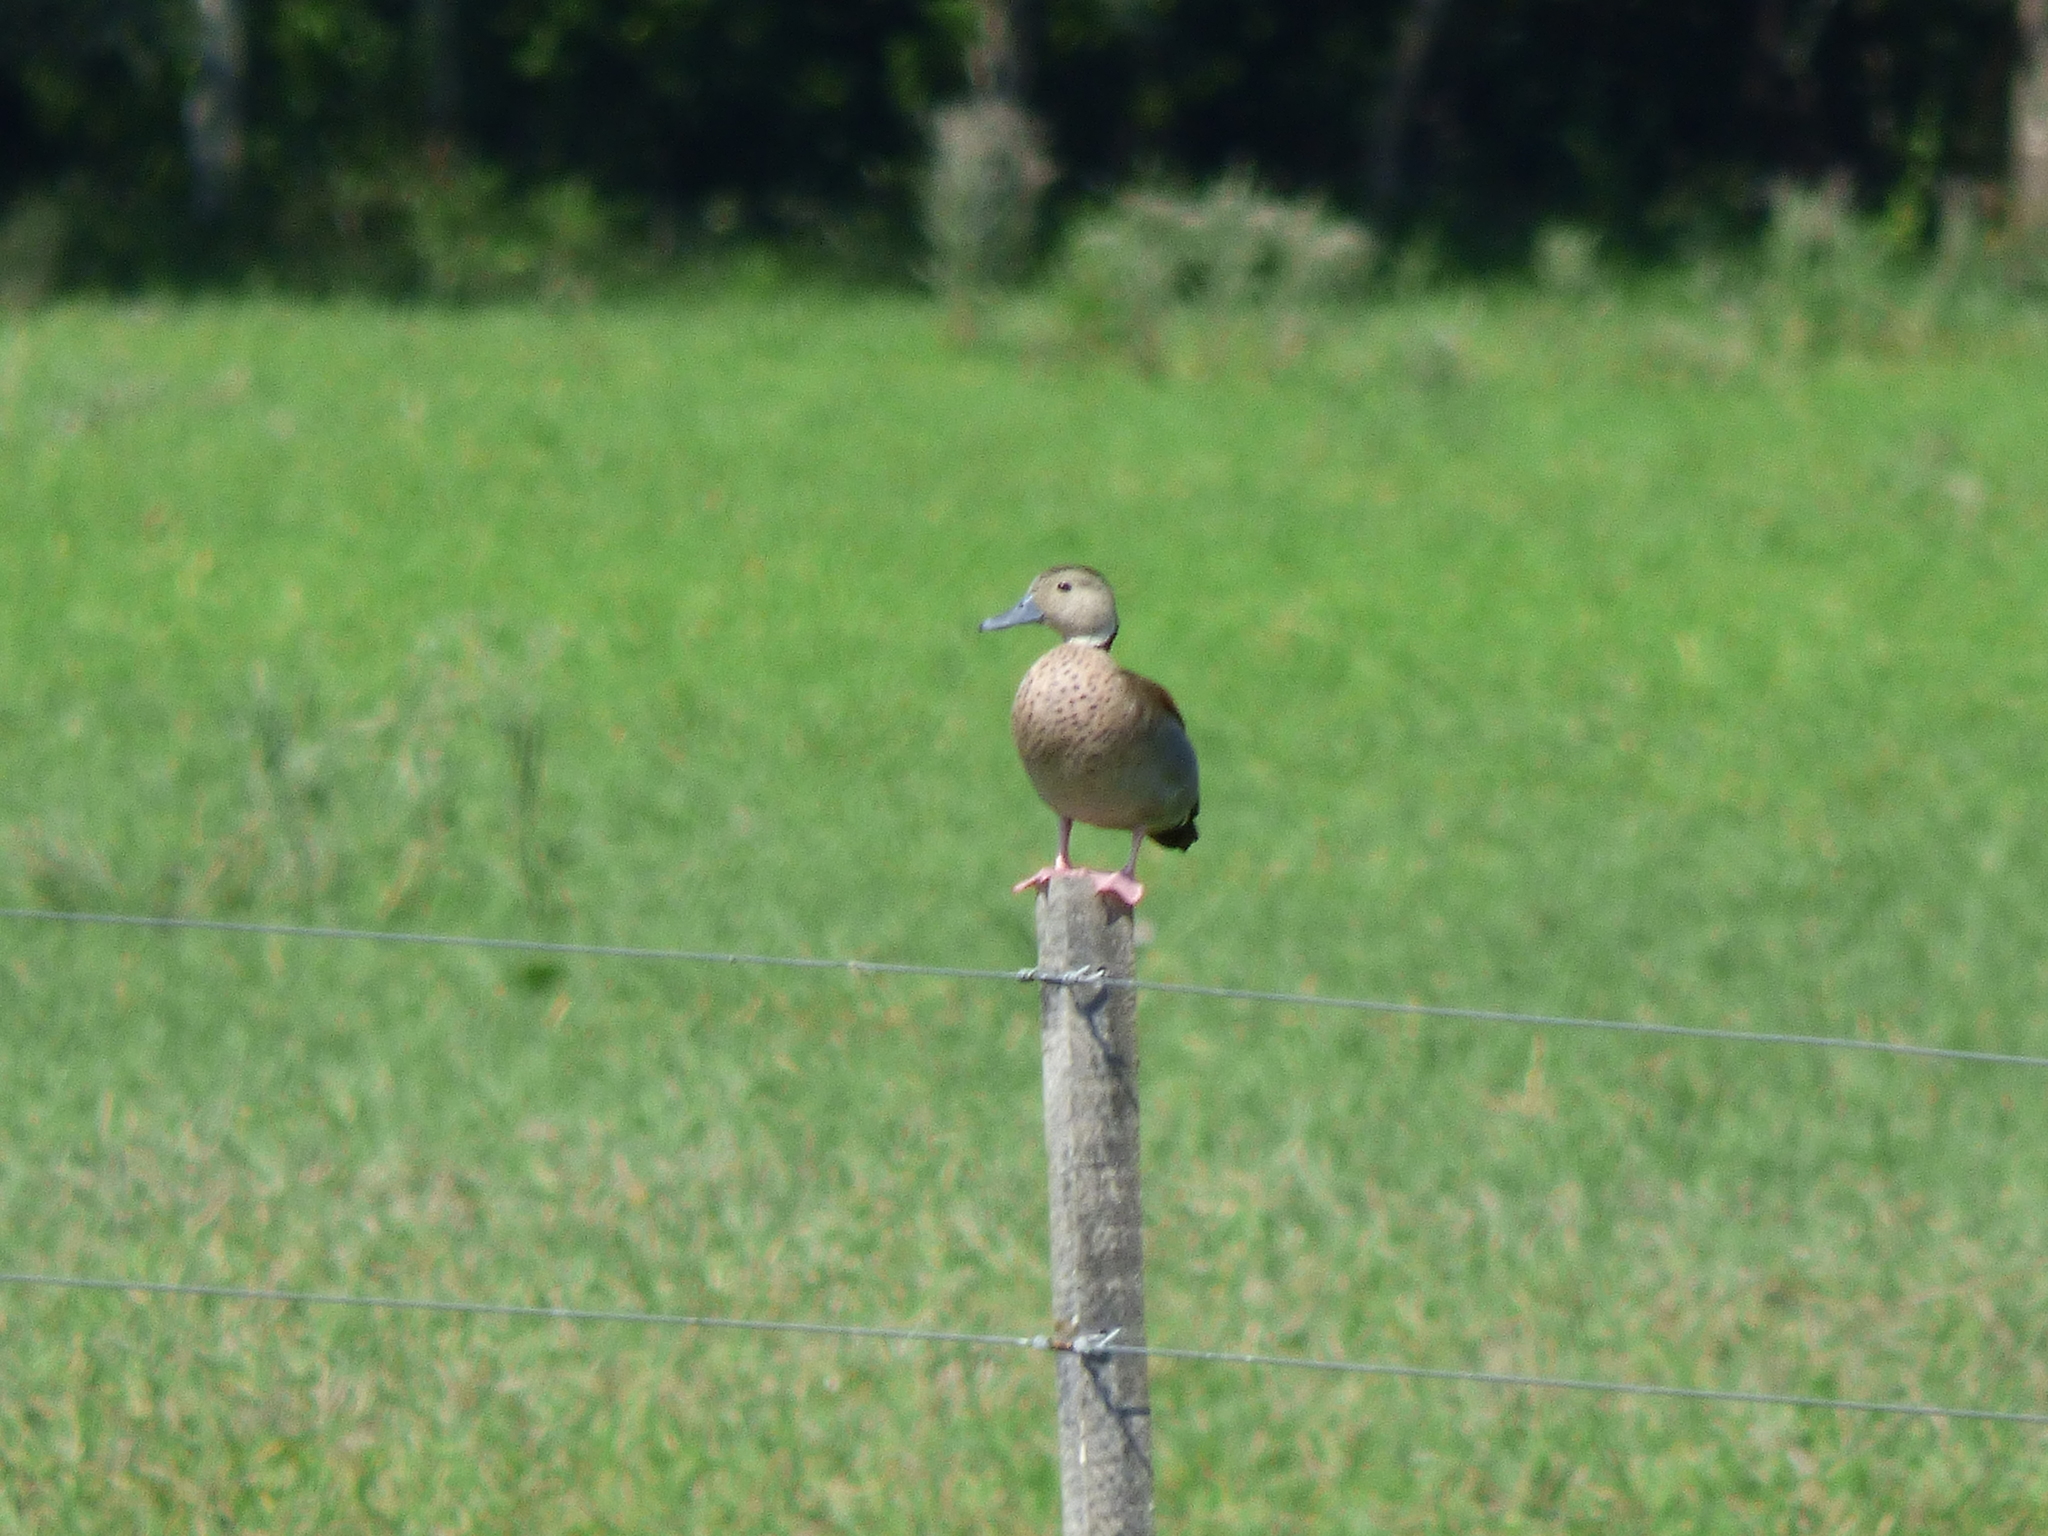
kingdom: Animalia
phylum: Chordata
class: Aves
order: Anseriformes
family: Anatidae
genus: Callonetta
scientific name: Callonetta leucophrys
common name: Ringed teal
